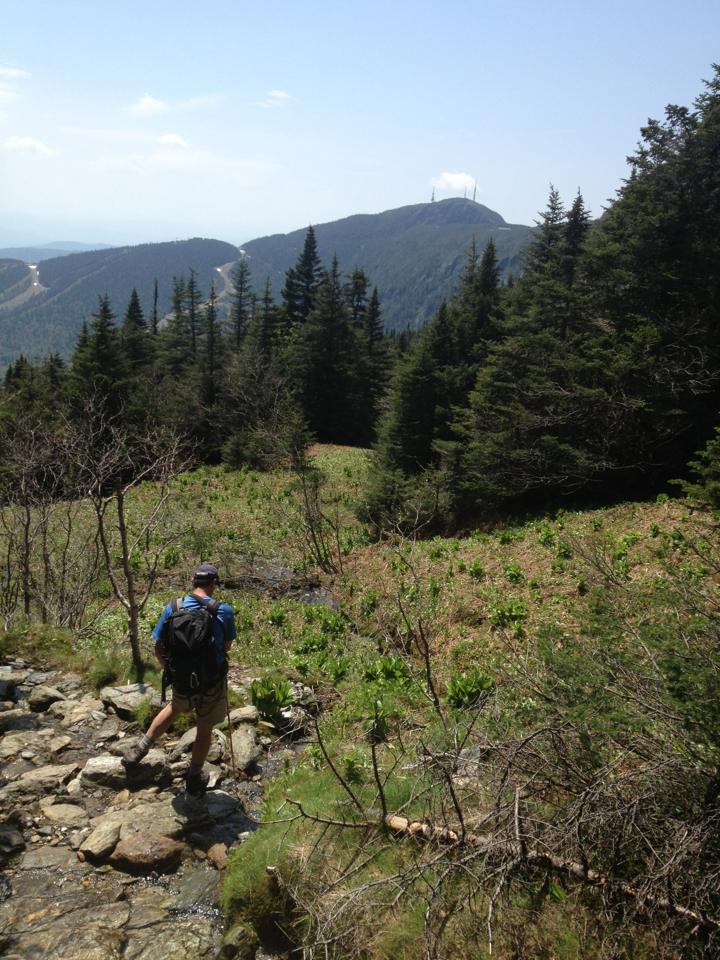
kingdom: Plantae
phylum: Tracheophyta
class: Liliopsida
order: Liliales
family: Melanthiaceae
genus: Veratrum
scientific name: Veratrum viride
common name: American false hellebore
